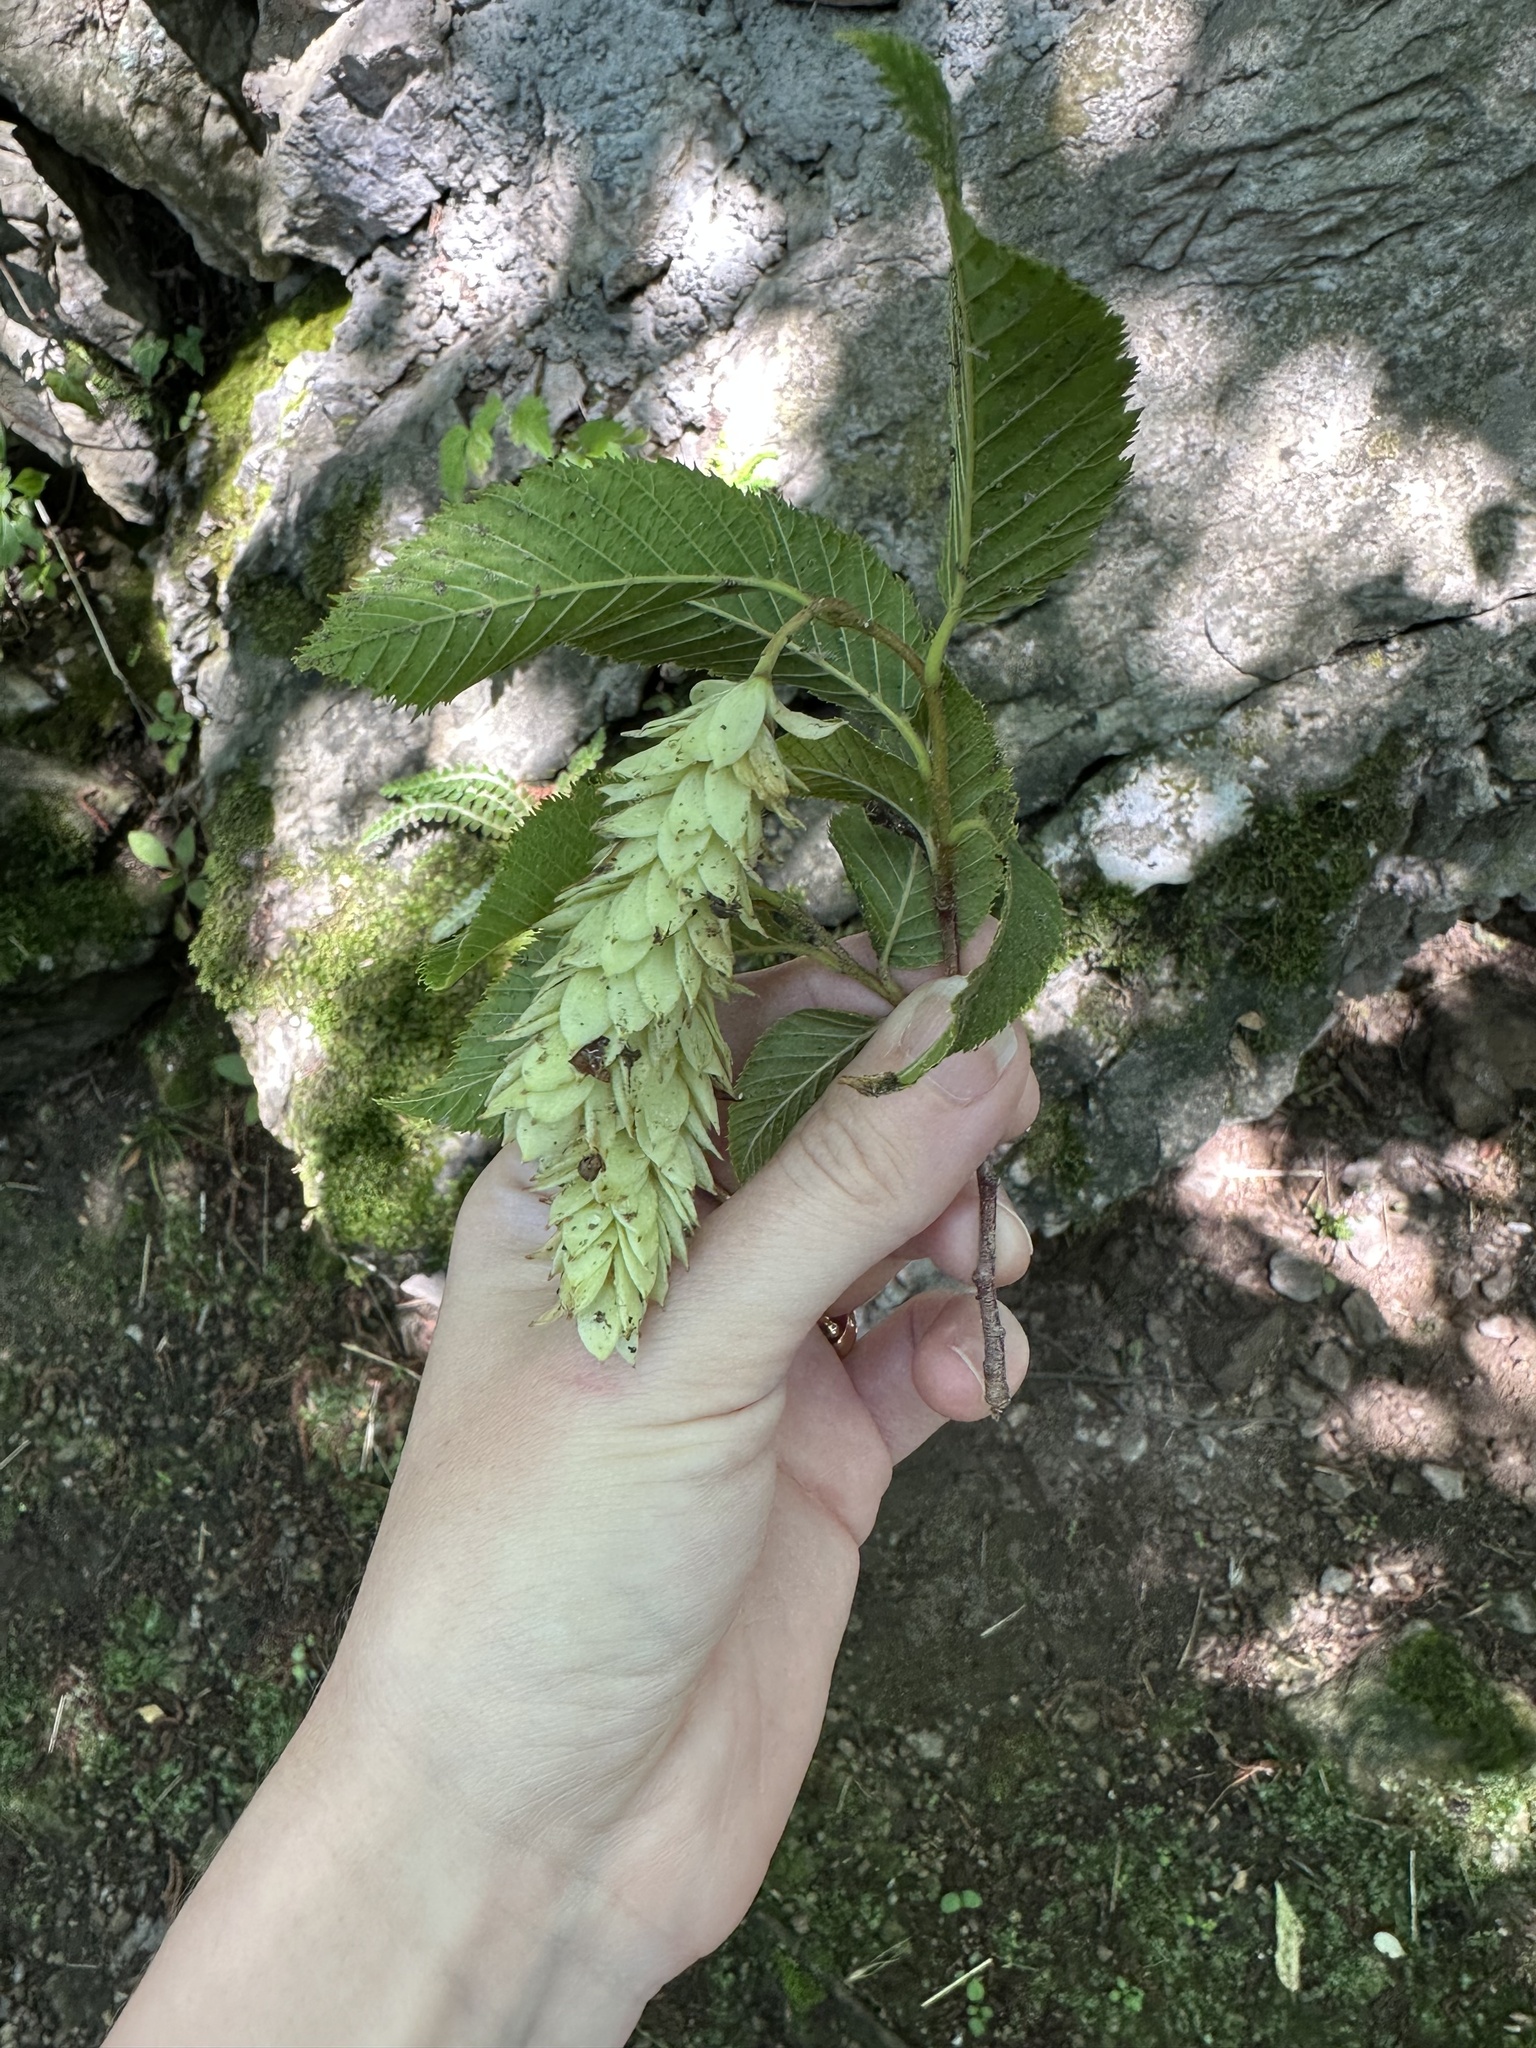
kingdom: Plantae
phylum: Tracheophyta
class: Magnoliopsida
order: Fagales
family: Betulaceae
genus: Ostrya
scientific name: Ostrya carpinifolia
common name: European hop-hornbeam
